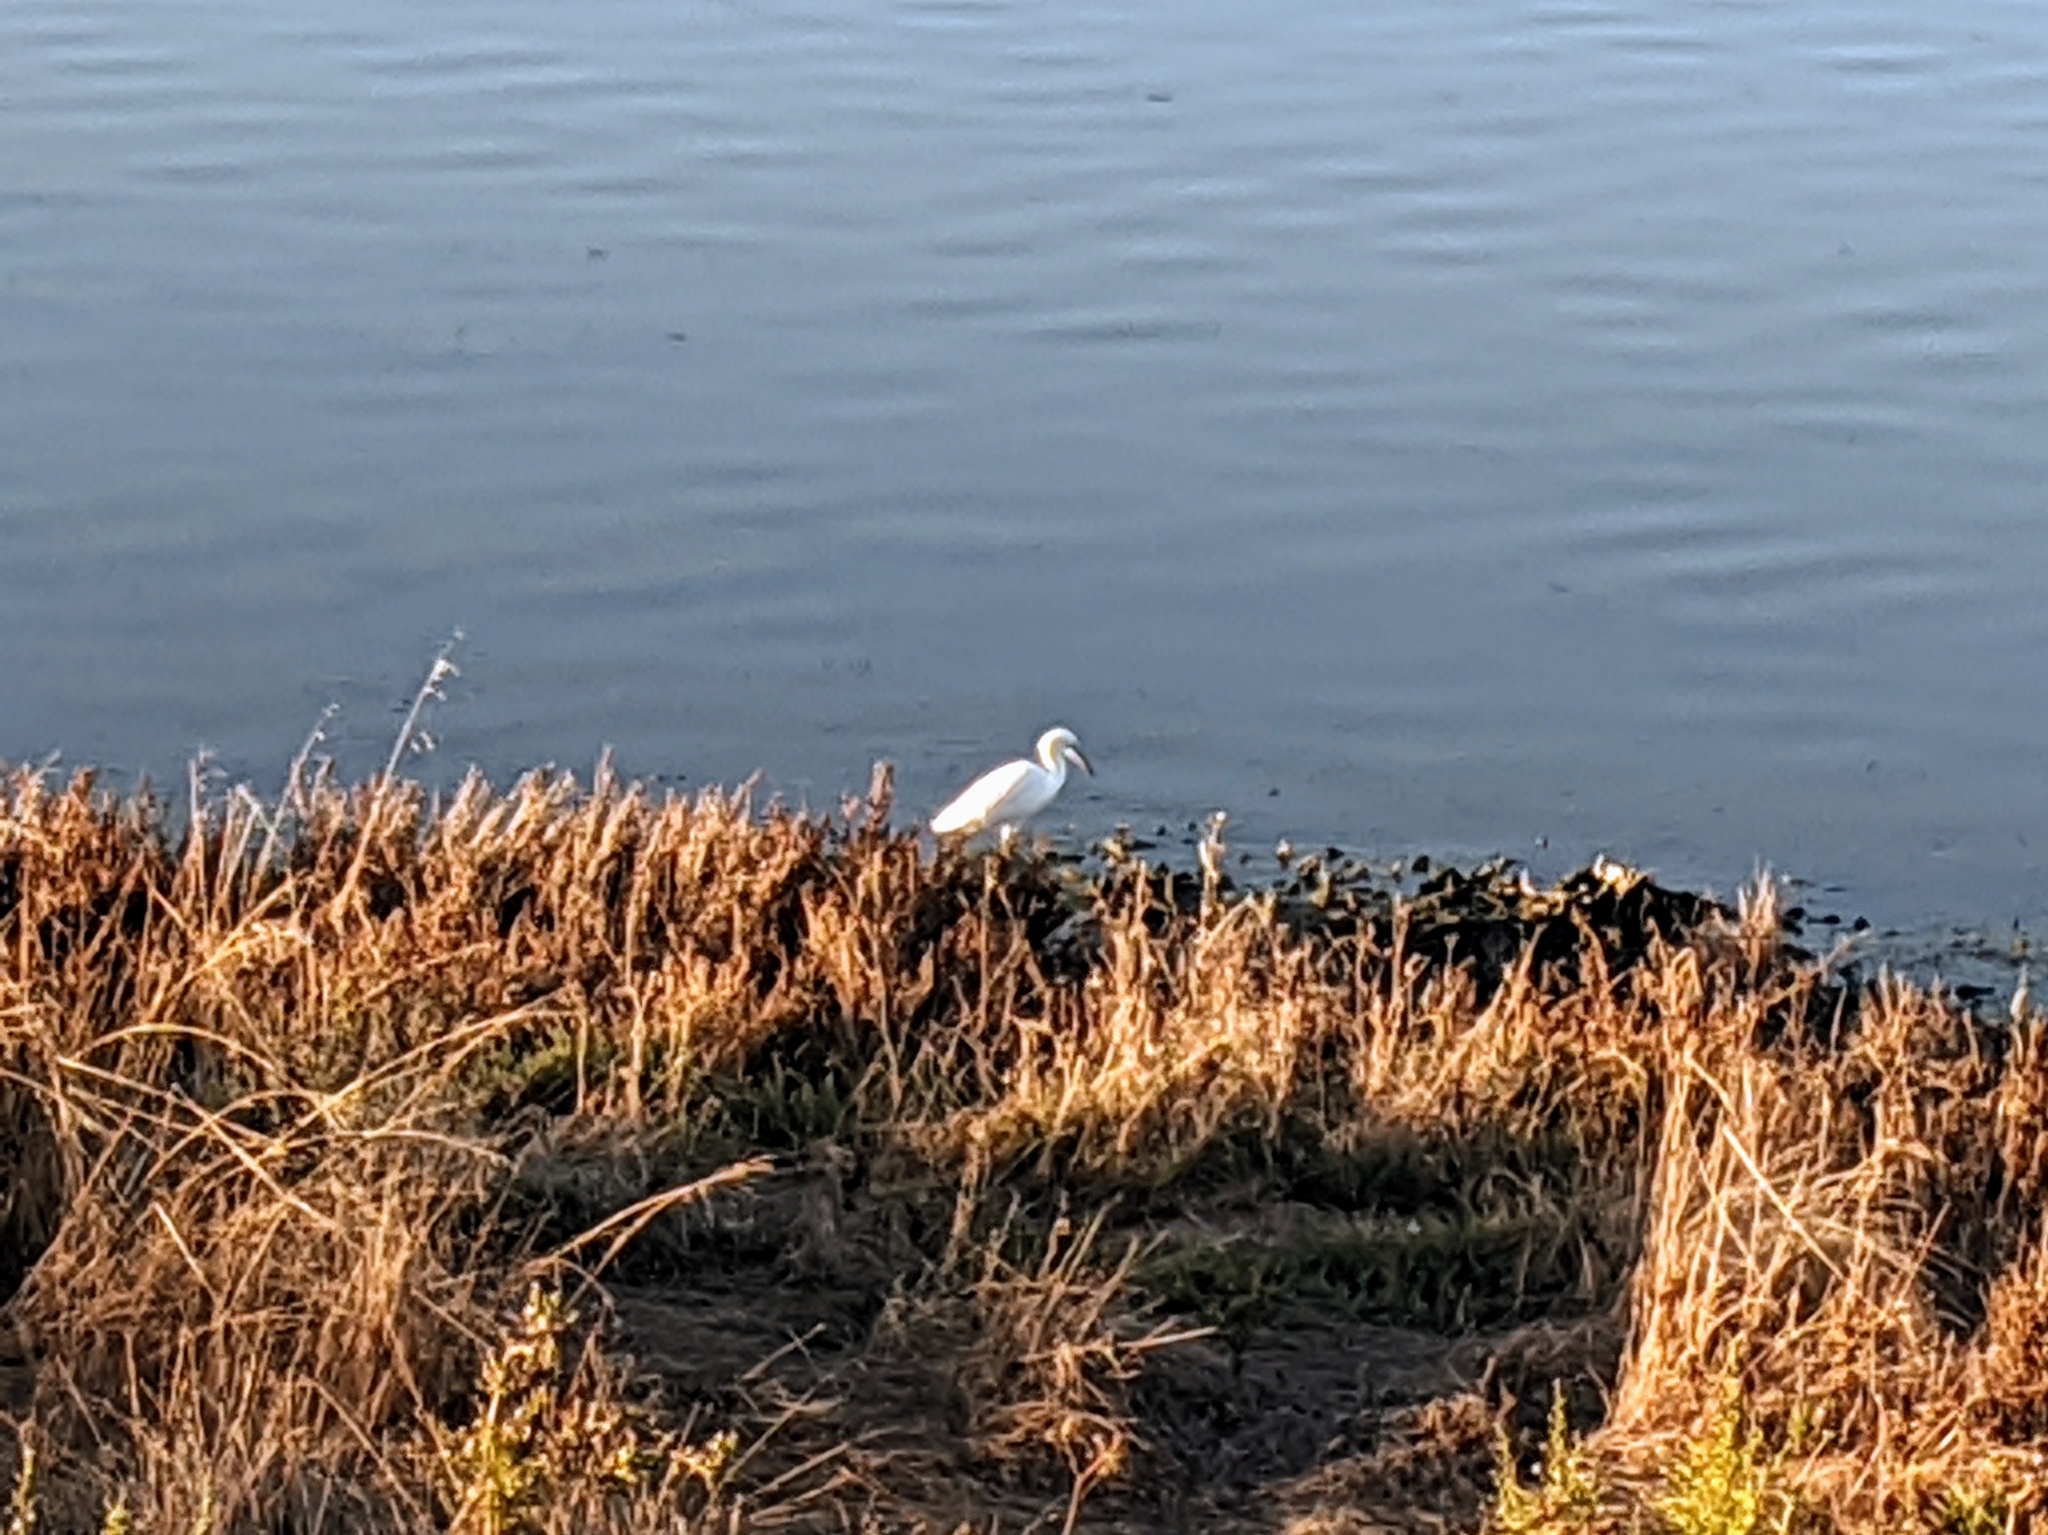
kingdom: Animalia
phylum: Chordata
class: Aves
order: Pelecaniformes
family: Ardeidae
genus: Egretta
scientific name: Egretta thula
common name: Snowy egret
